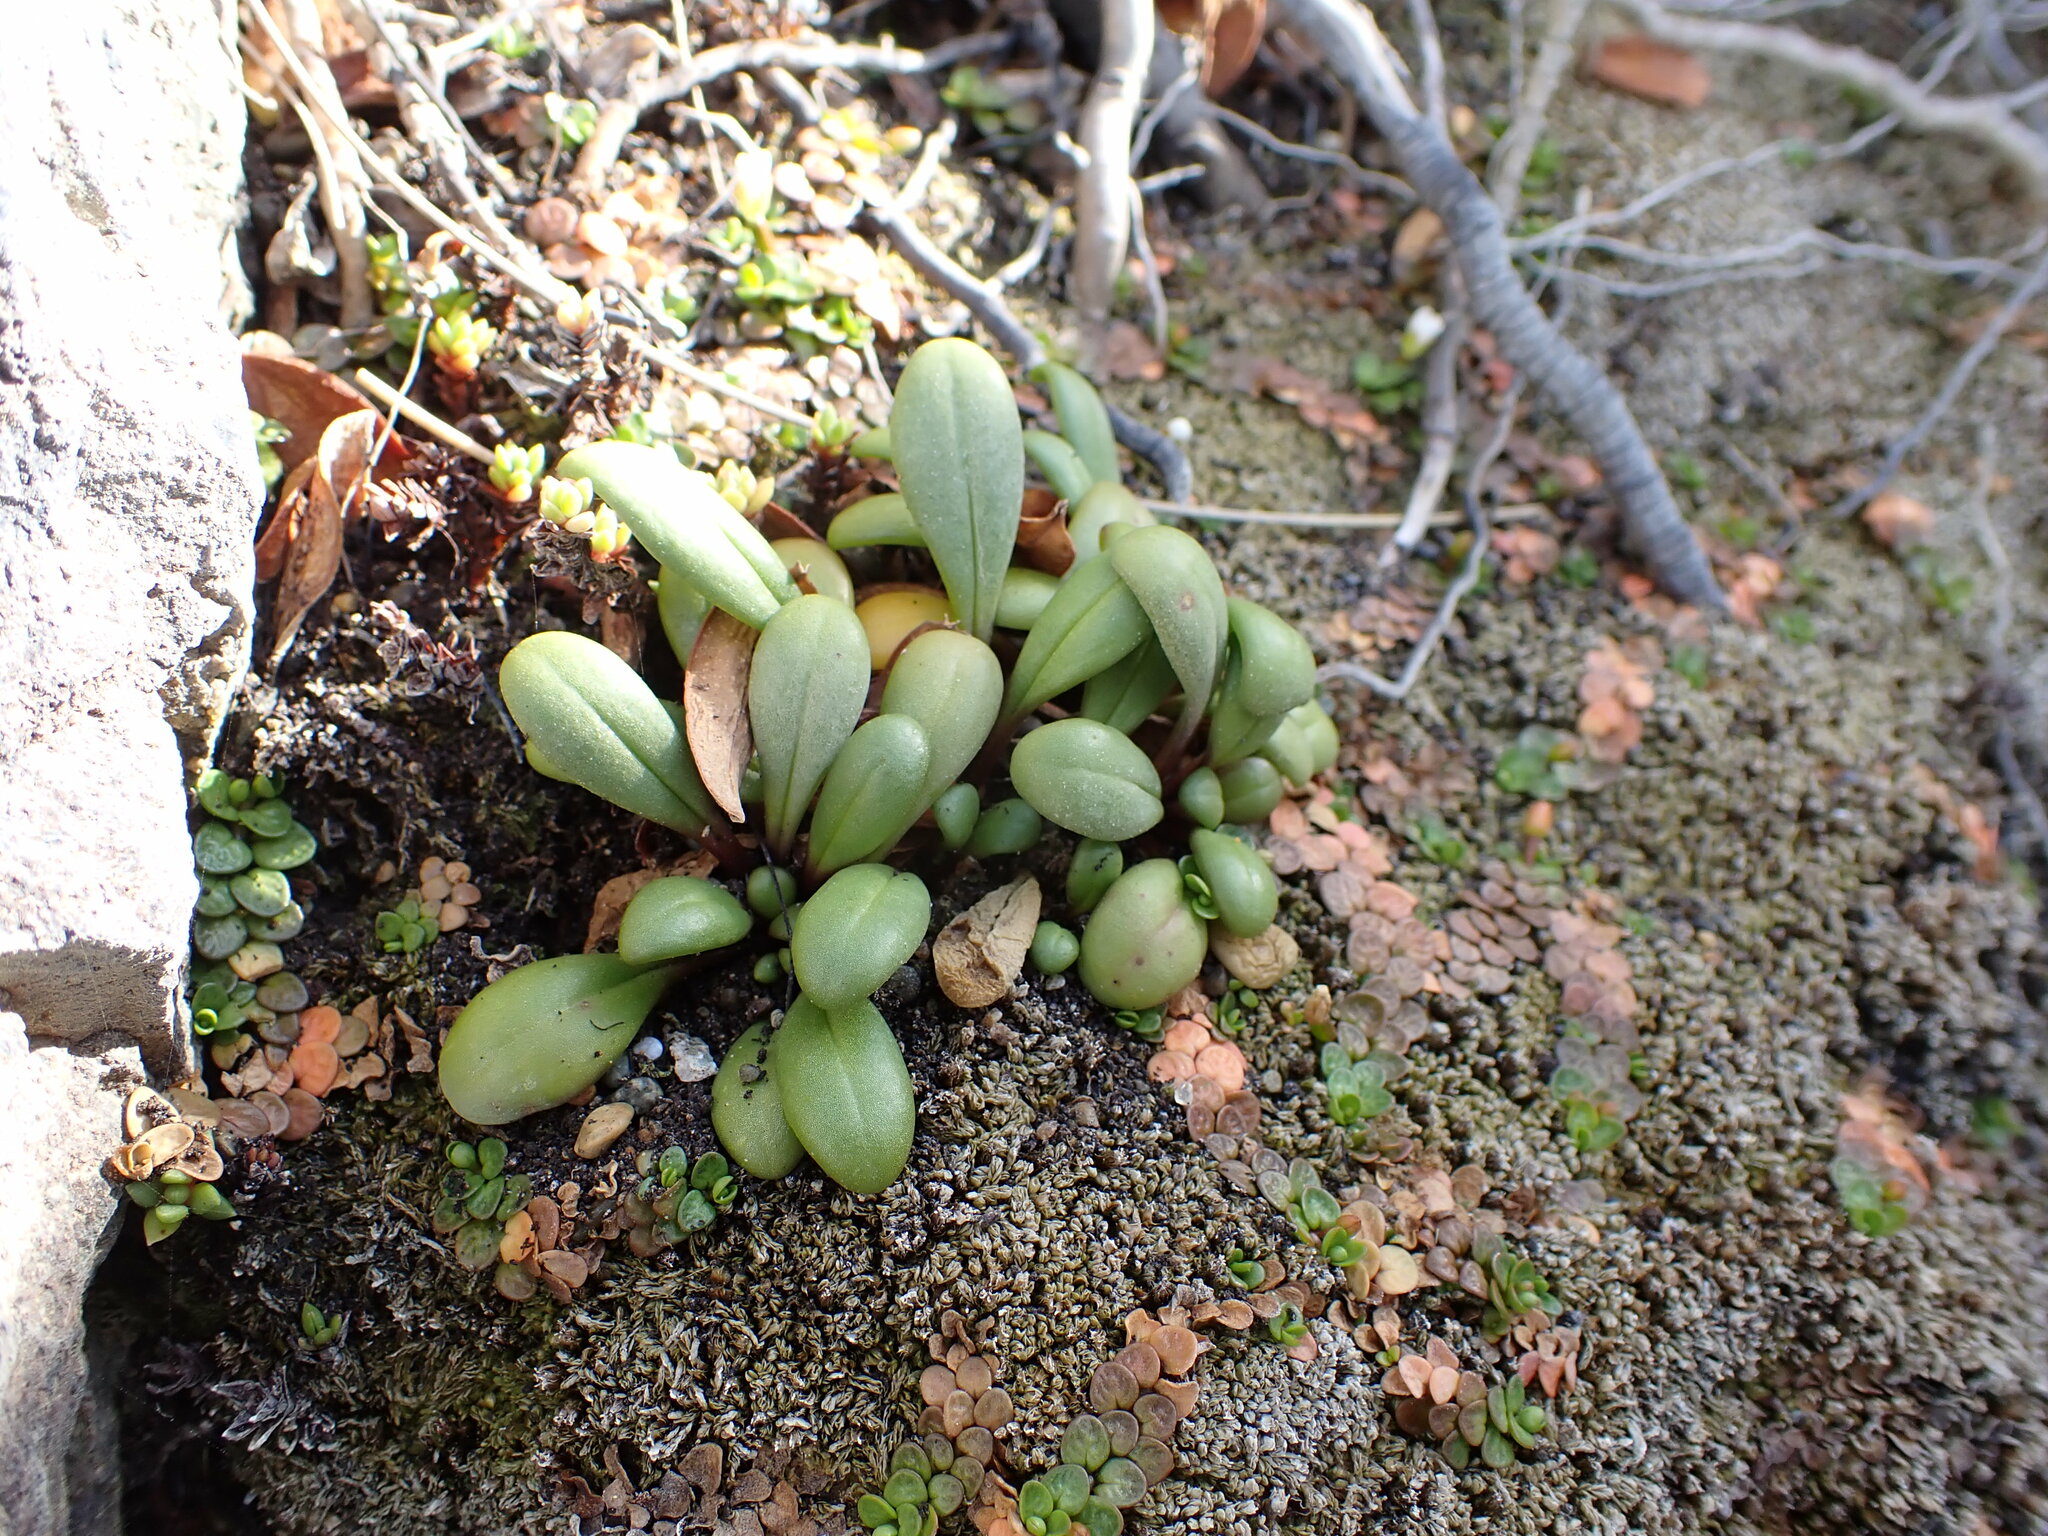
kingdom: Plantae
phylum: Tracheophyta
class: Magnoliopsida
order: Gentianales
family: Gentianaceae
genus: Gentianella
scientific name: Gentianella saxosa
